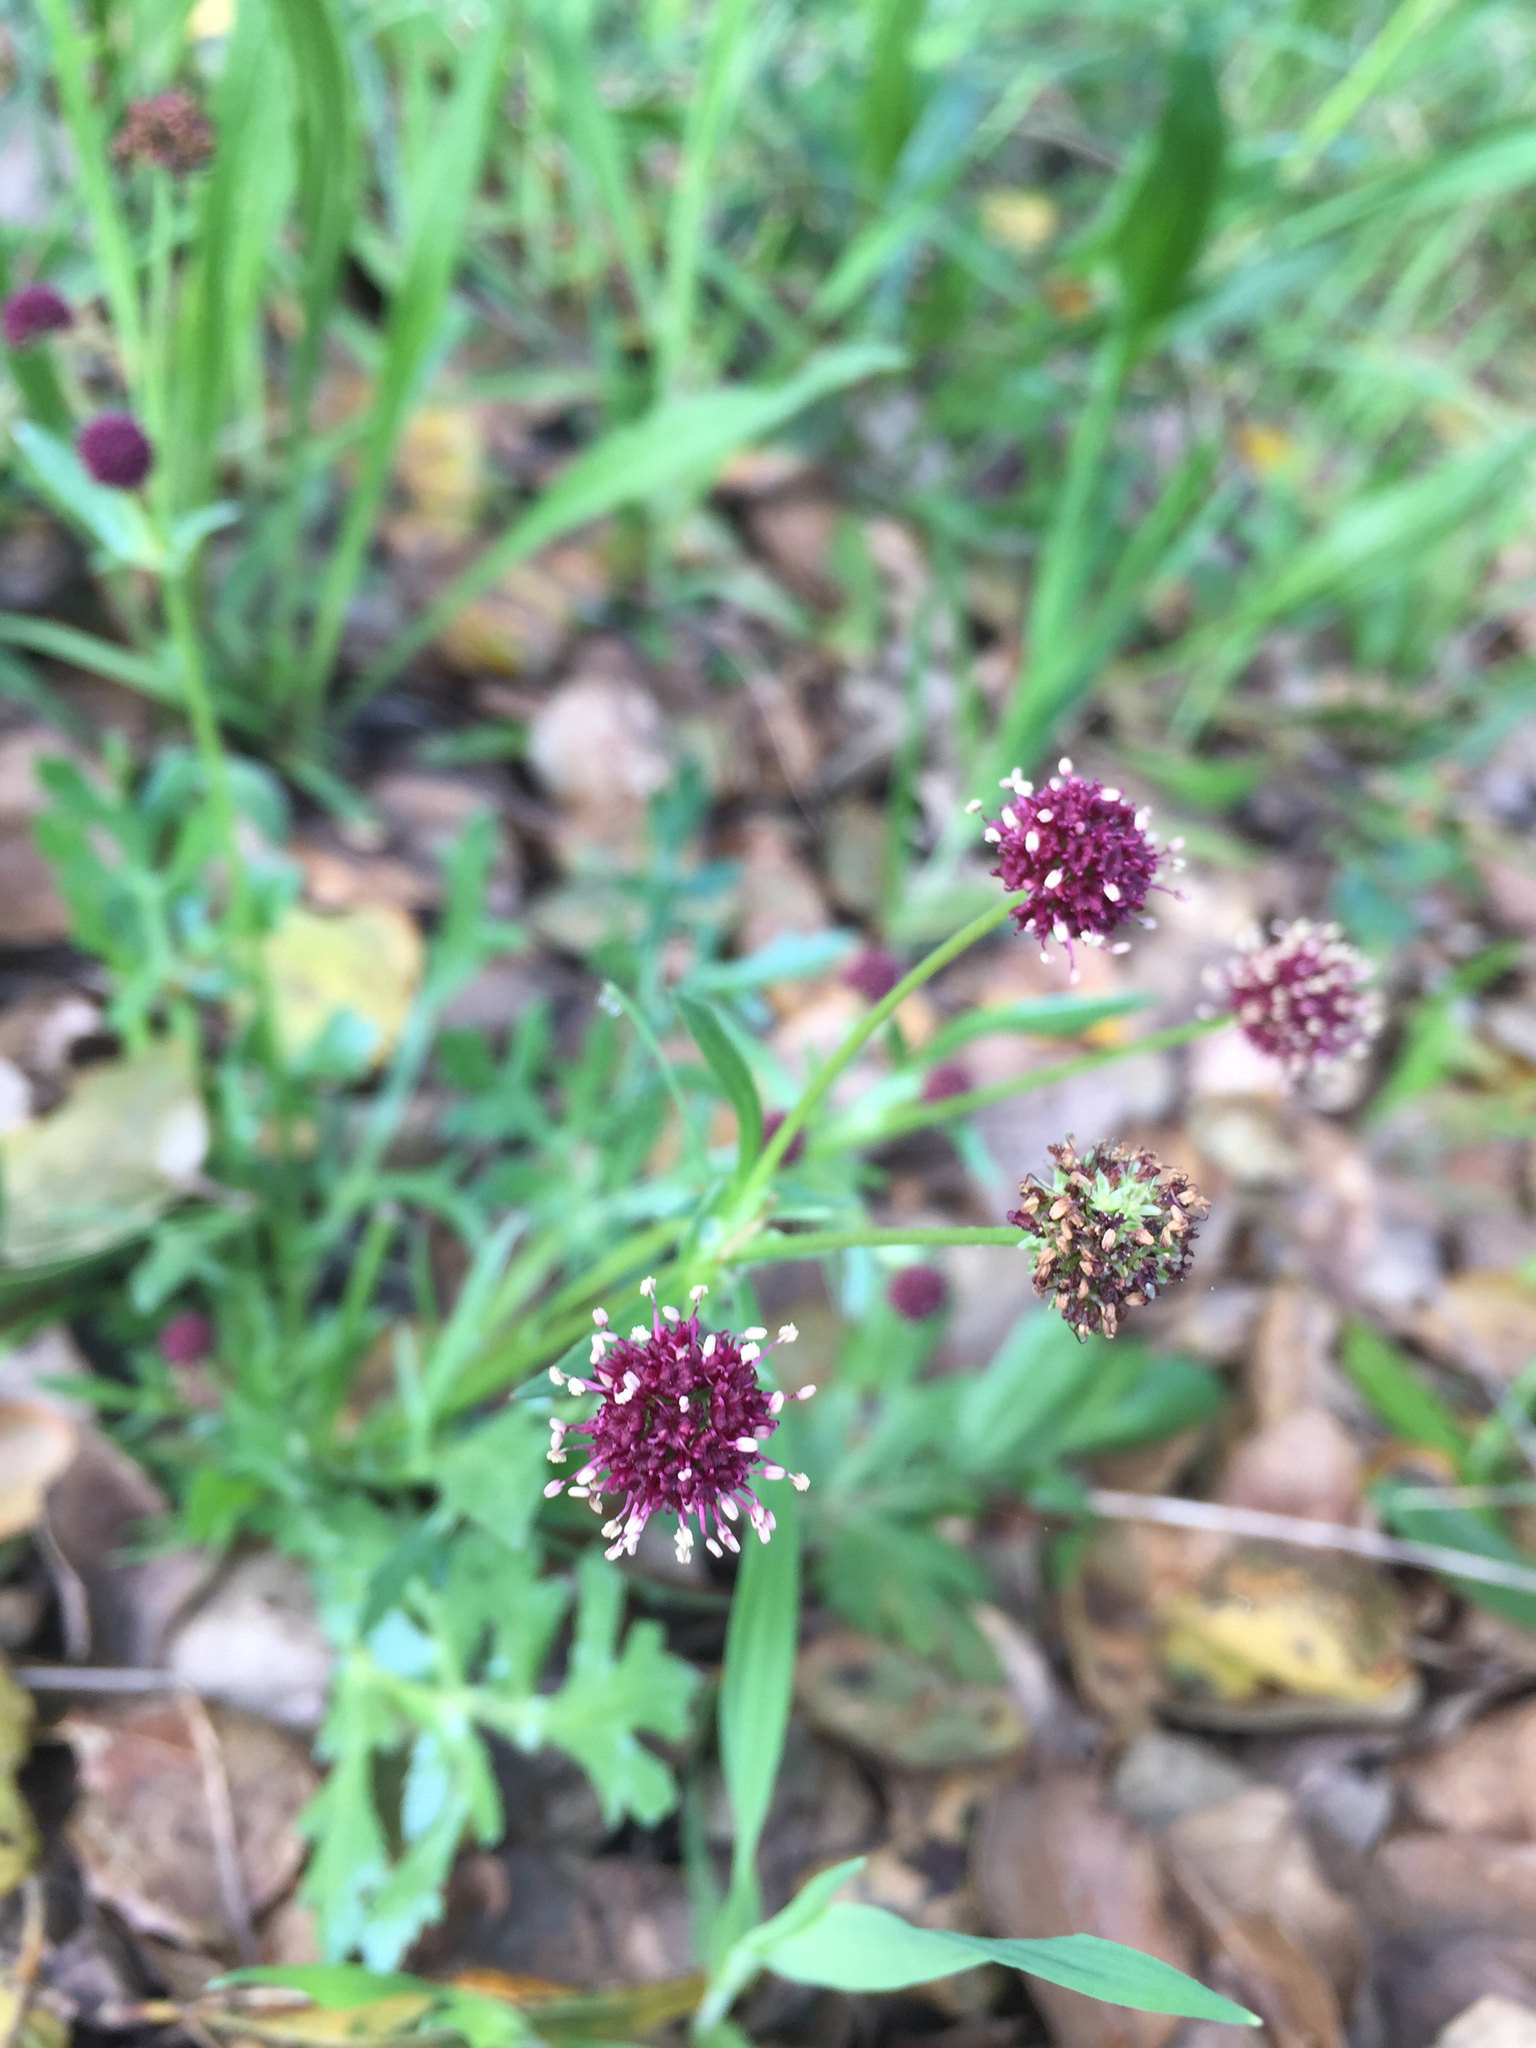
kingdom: Plantae
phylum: Tracheophyta
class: Magnoliopsida
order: Apiales
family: Apiaceae
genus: Sanicula
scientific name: Sanicula bipinnatifida
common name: Shoe-buttons
